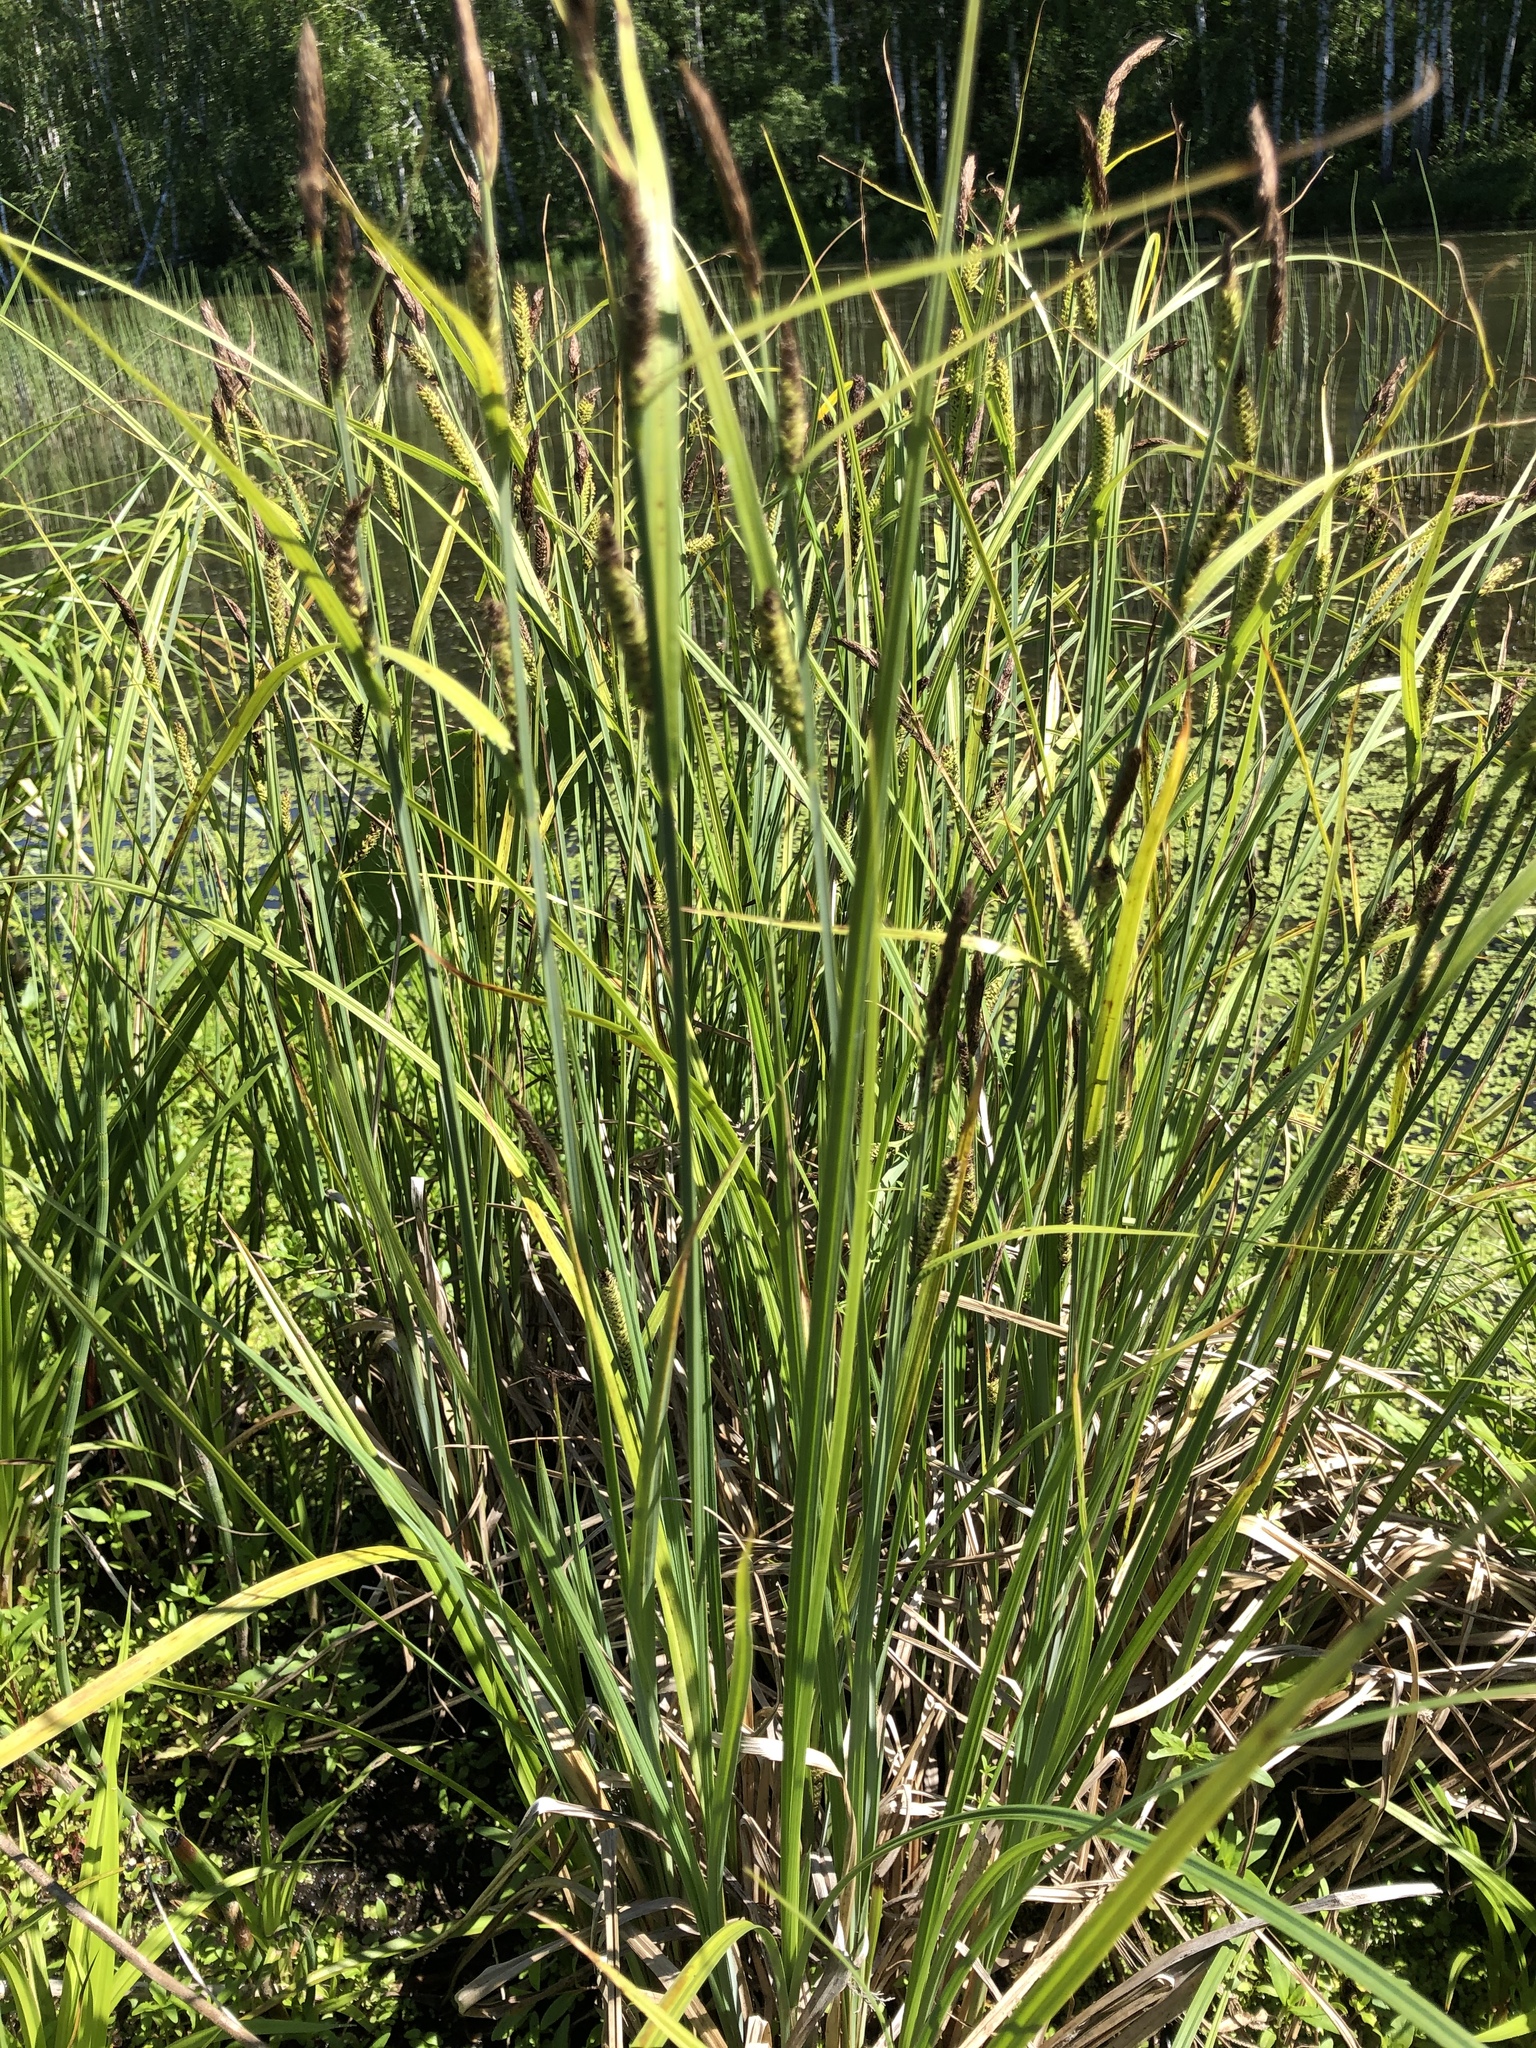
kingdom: Plantae
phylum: Tracheophyta
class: Liliopsida
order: Poales
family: Cyperaceae
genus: Carex
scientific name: Carex acuta
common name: Slender tufted-sedge
